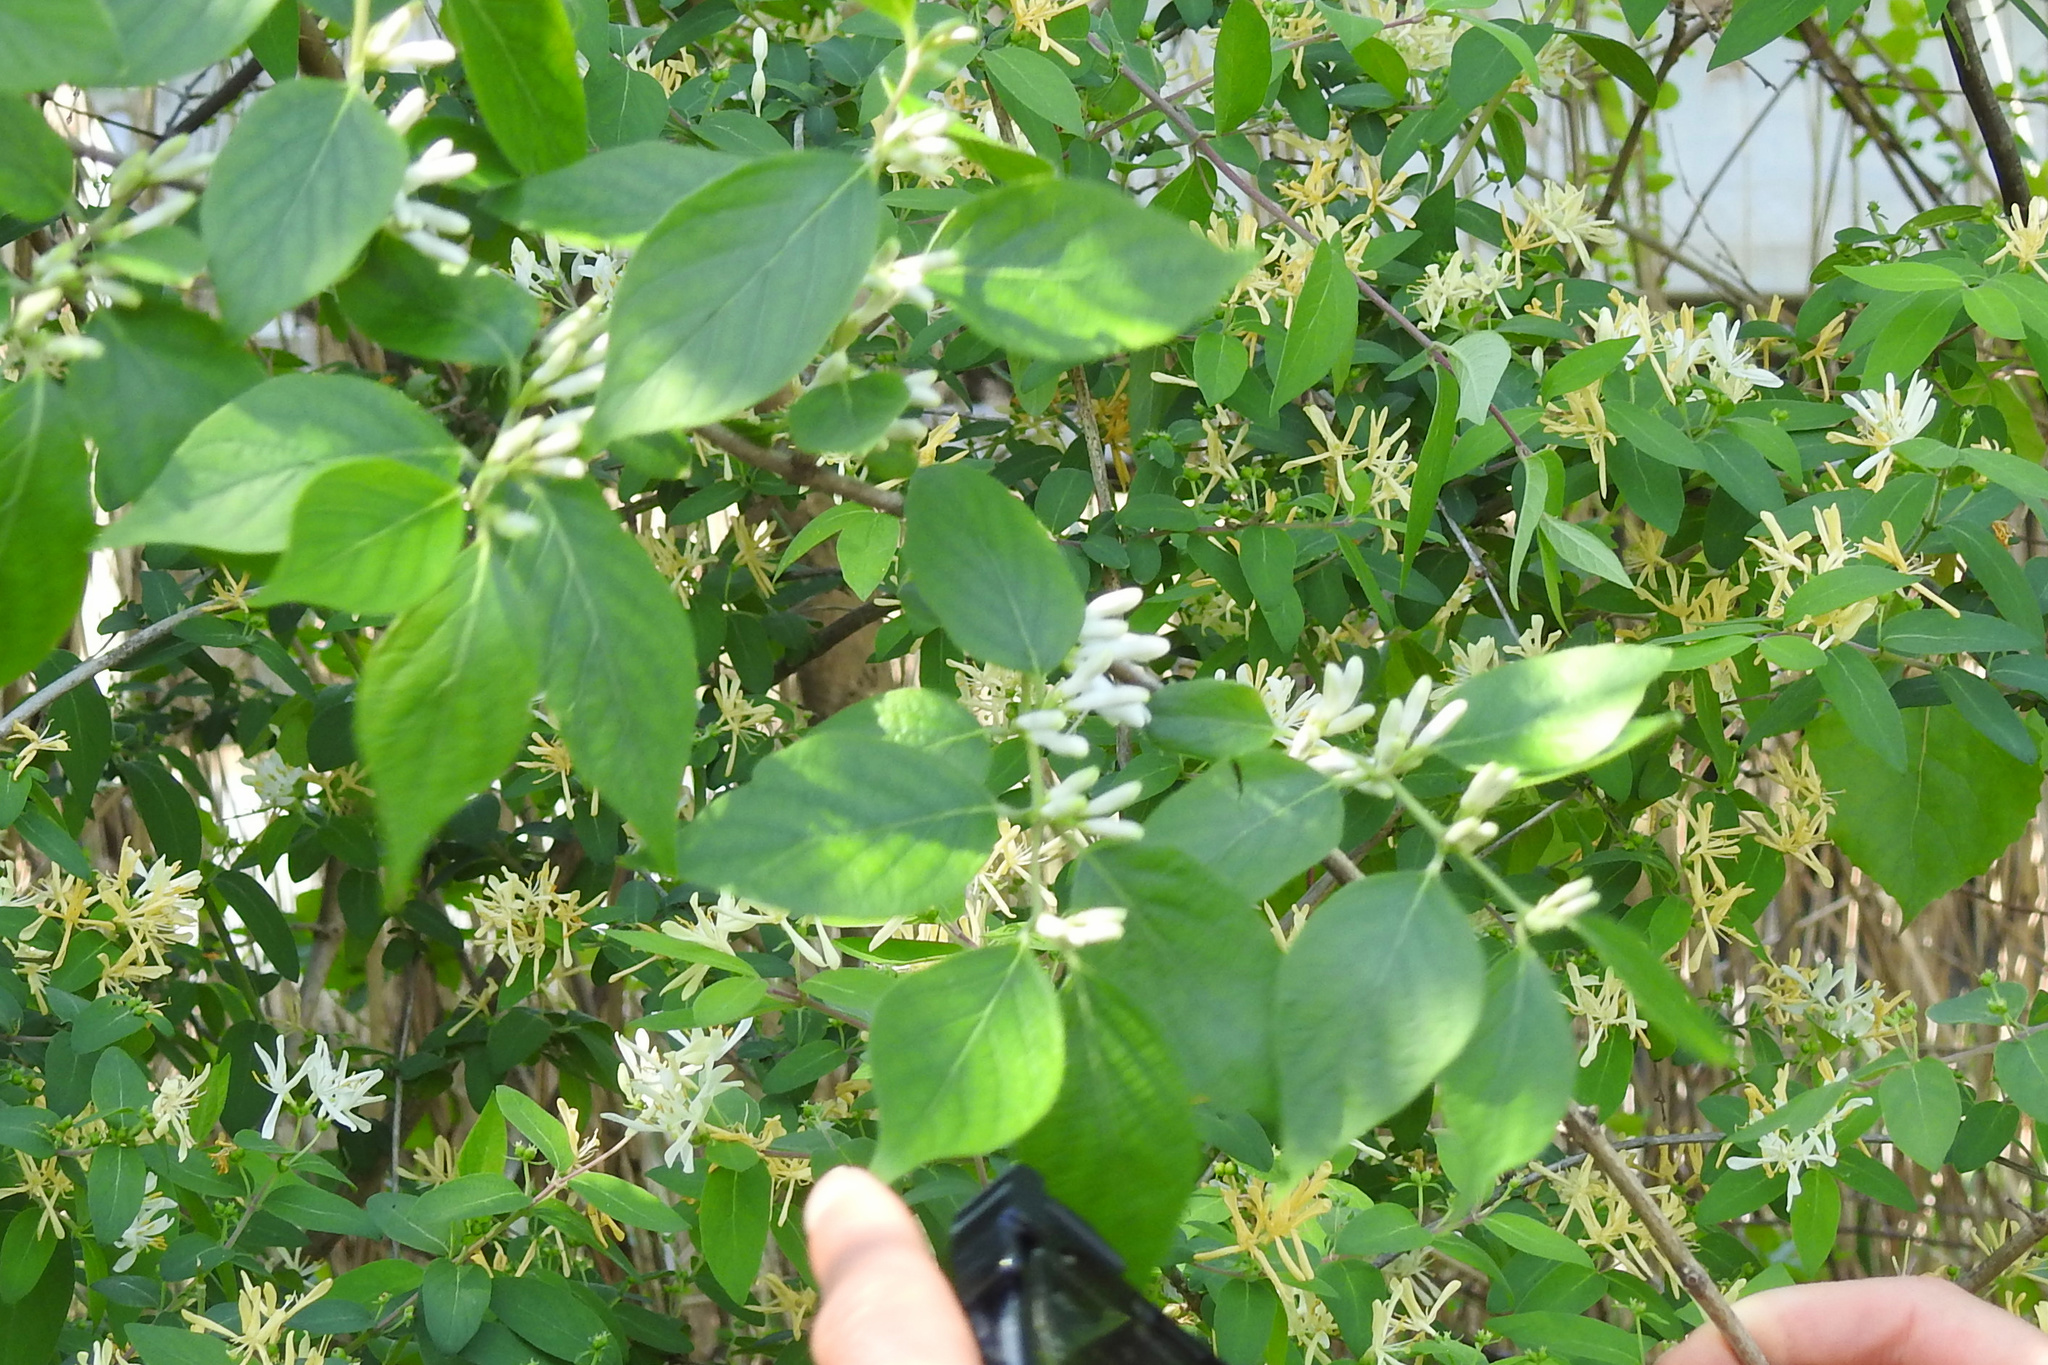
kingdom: Plantae
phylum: Tracheophyta
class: Magnoliopsida
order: Dipsacales
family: Caprifoliaceae
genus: Lonicera
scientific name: Lonicera maackii
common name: Amur honeysuckle
